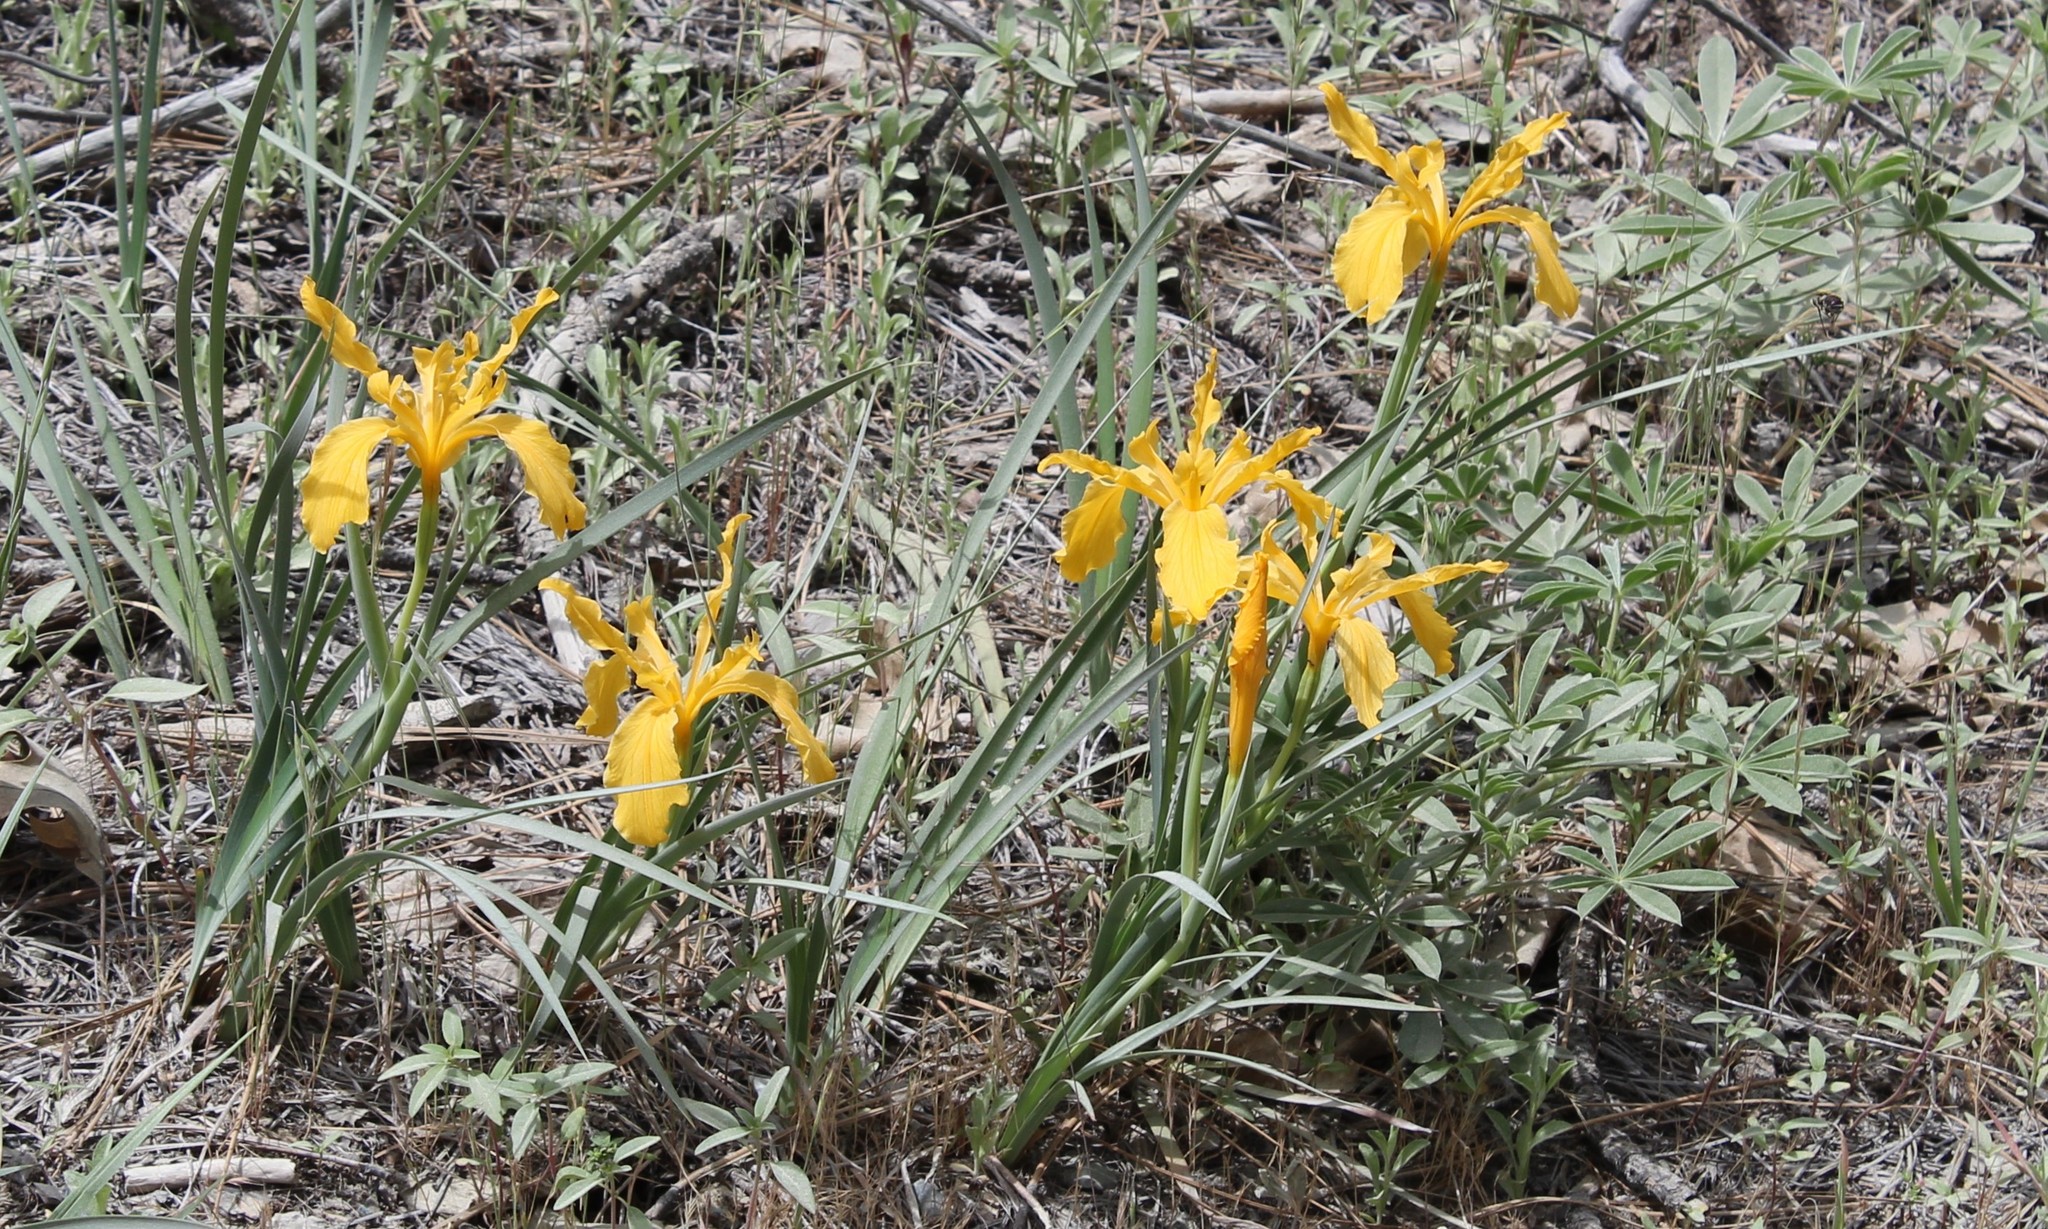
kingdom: Plantae
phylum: Tracheophyta
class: Liliopsida
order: Asparagales
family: Iridaceae
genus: Iris
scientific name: Iris hartwegii
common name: Sierra iris
